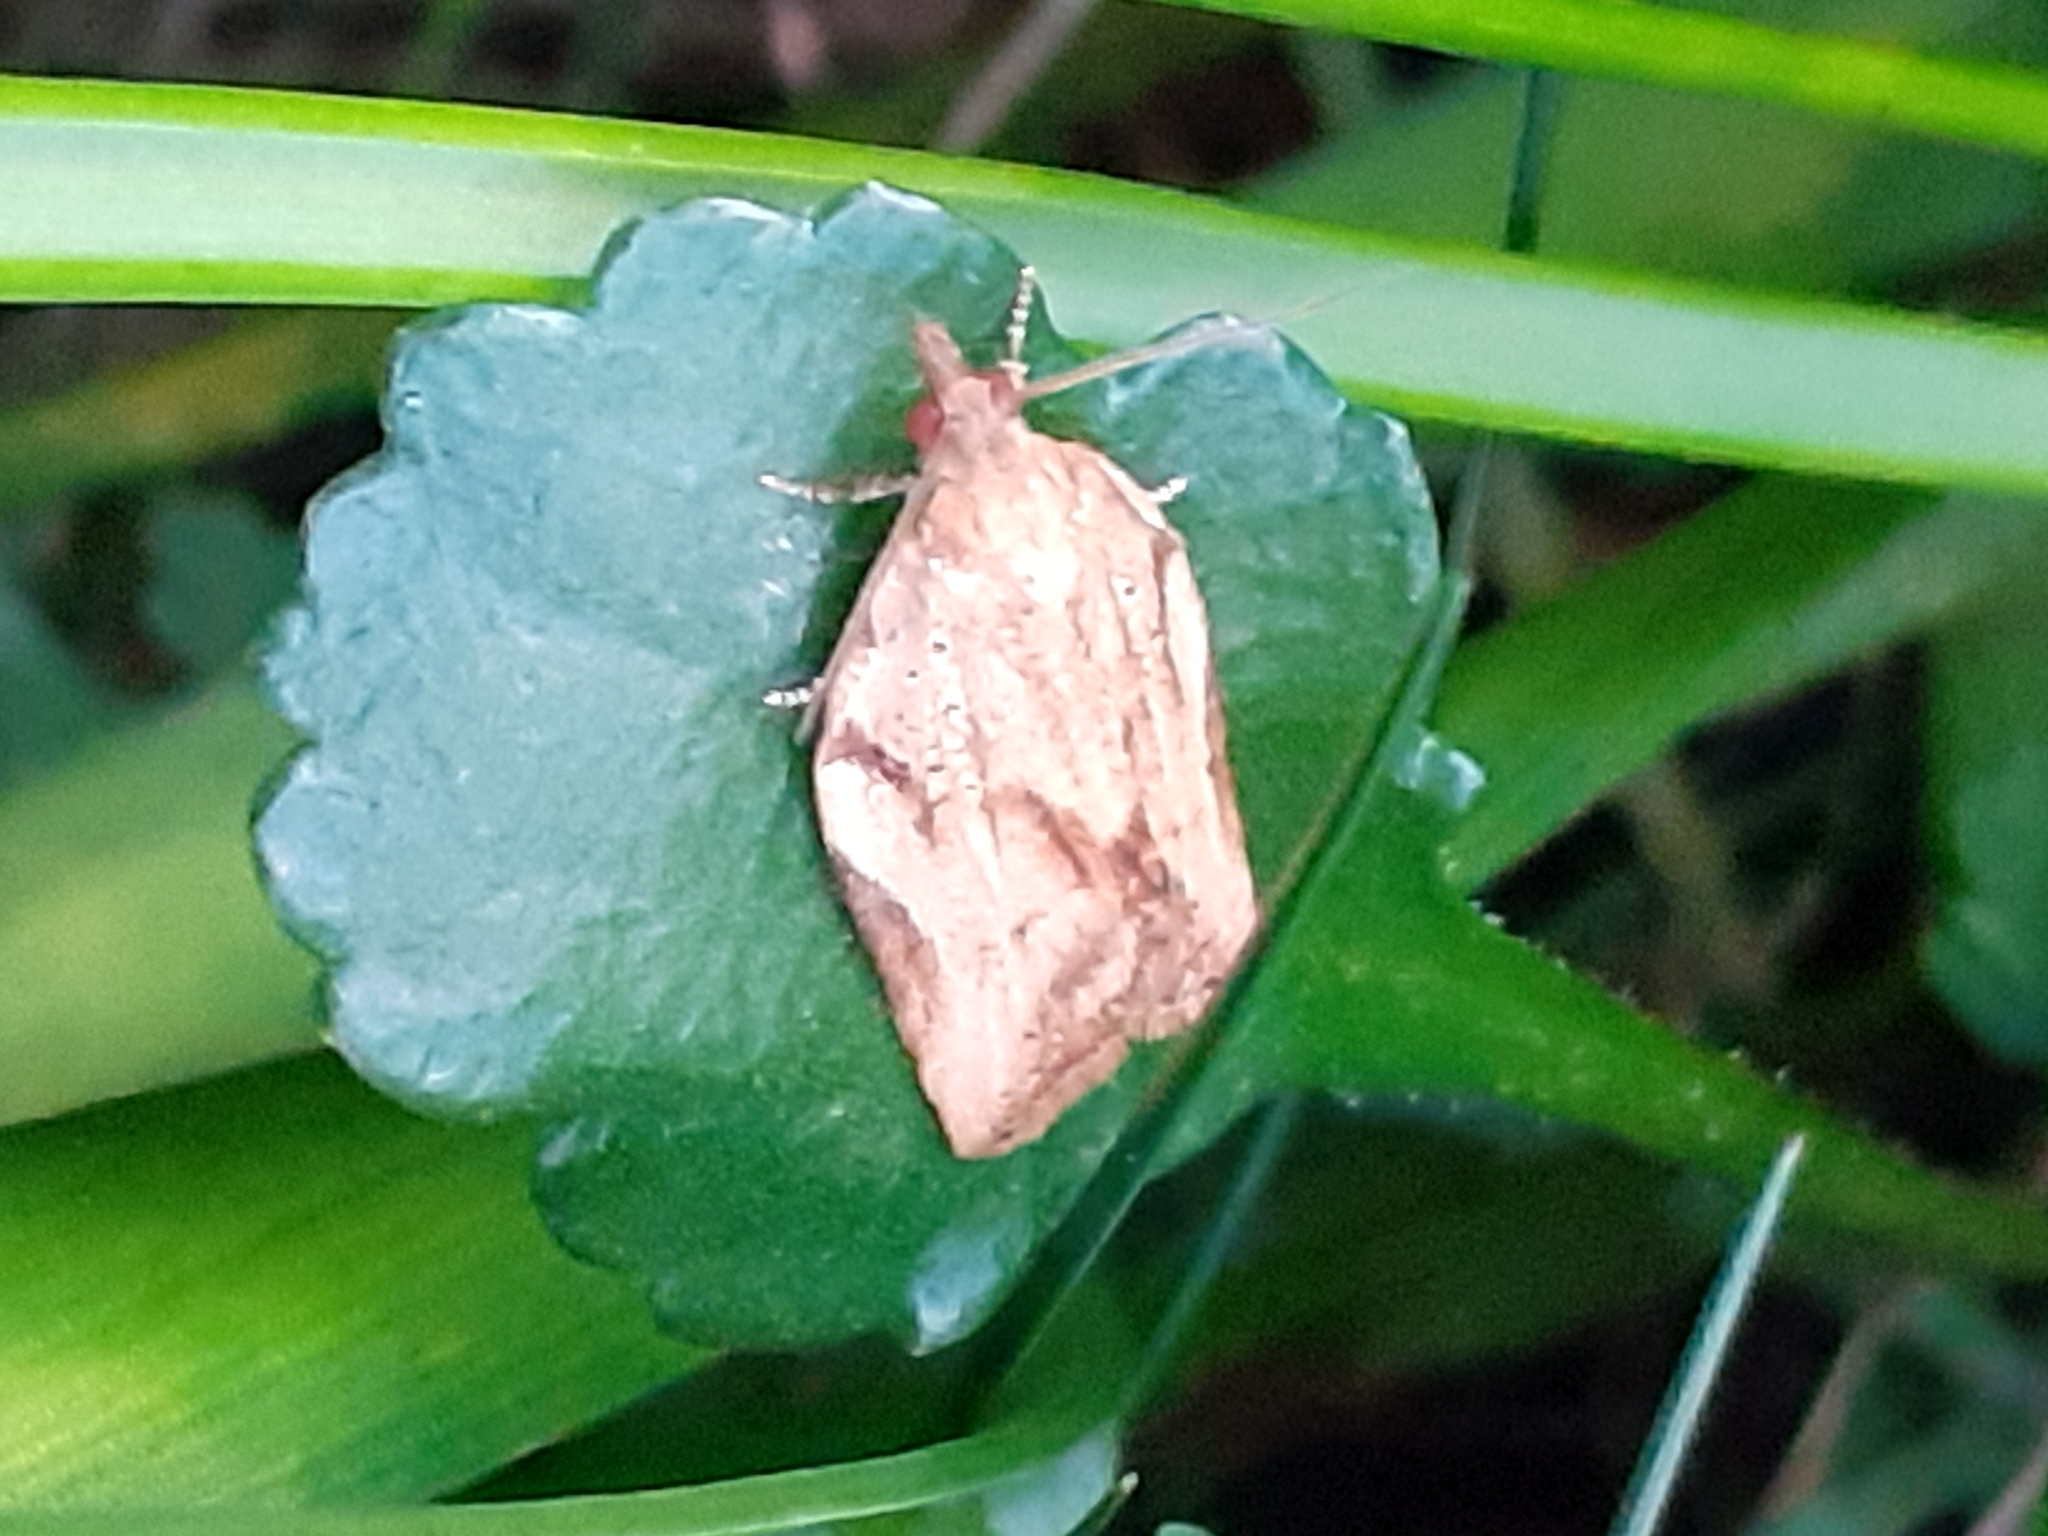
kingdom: Animalia
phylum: Arthropoda
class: Insecta
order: Lepidoptera
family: Tortricidae
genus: Epiphyas
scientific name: Epiphyas postvittana
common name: Light brown apple moth
